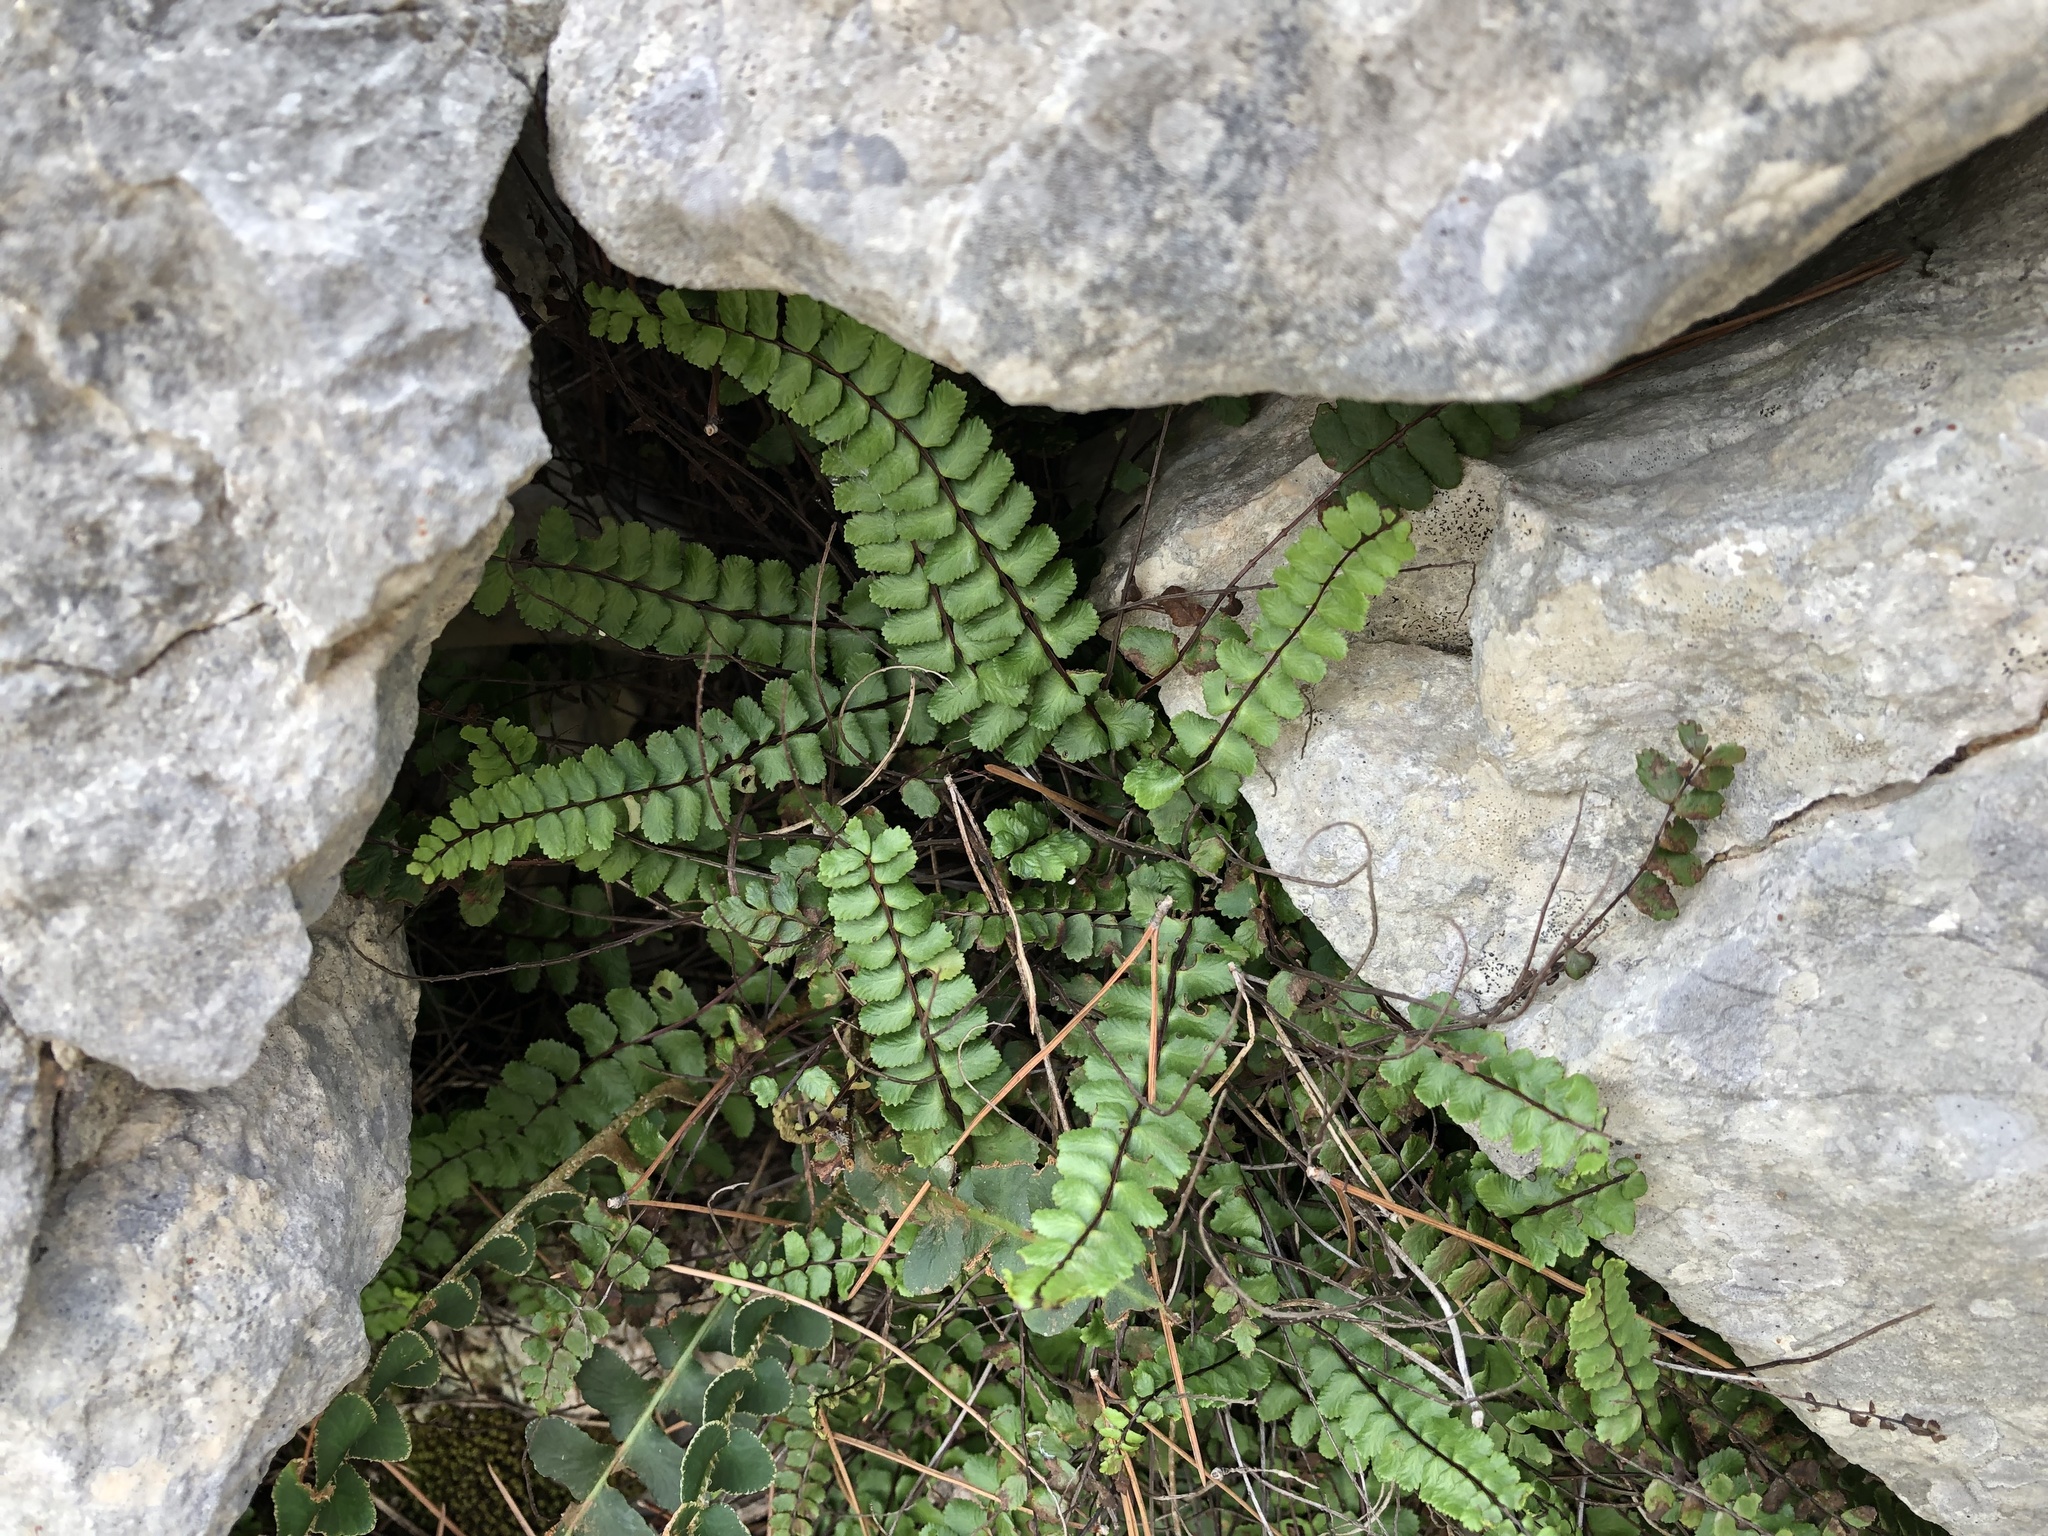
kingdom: Plantae
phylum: Tracheophyta
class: Polypodiopsida
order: Polypodiales
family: Aspleniaceae
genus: Asplenium
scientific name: Asplenium trichomanes
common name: Maidenhair spleenwort
